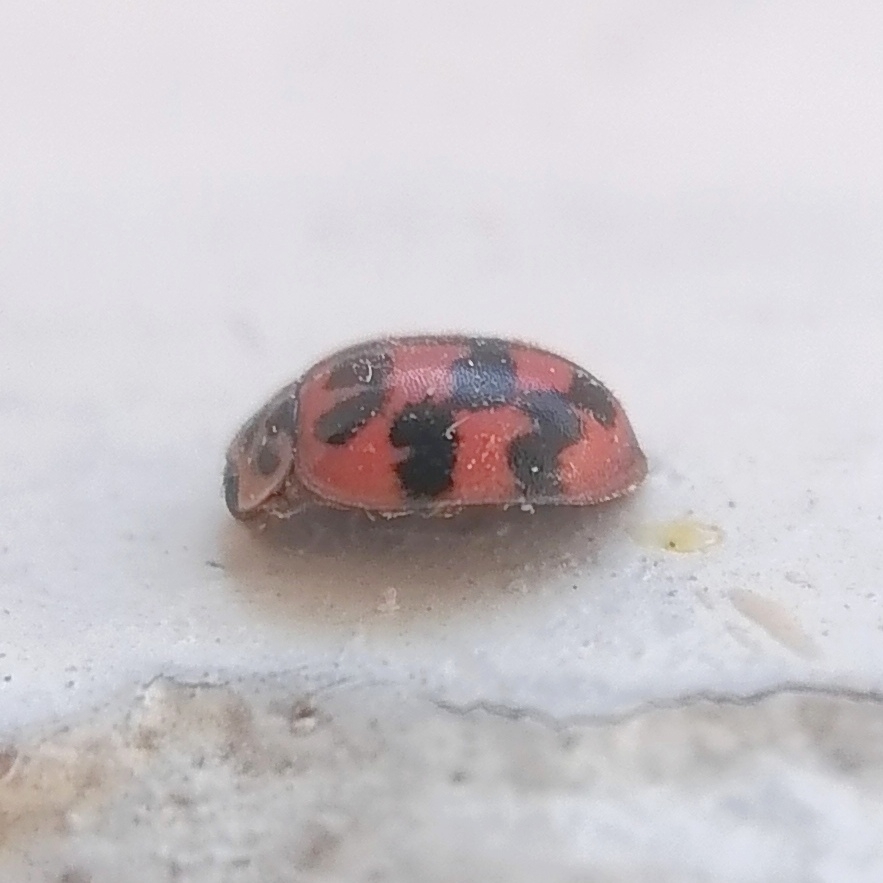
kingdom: Animalia
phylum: Arthropoda
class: Insecta
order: Coleoptera
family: Coccinellidae
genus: Oenopia
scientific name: Oenopia conglobata
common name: Ladybird beetle
